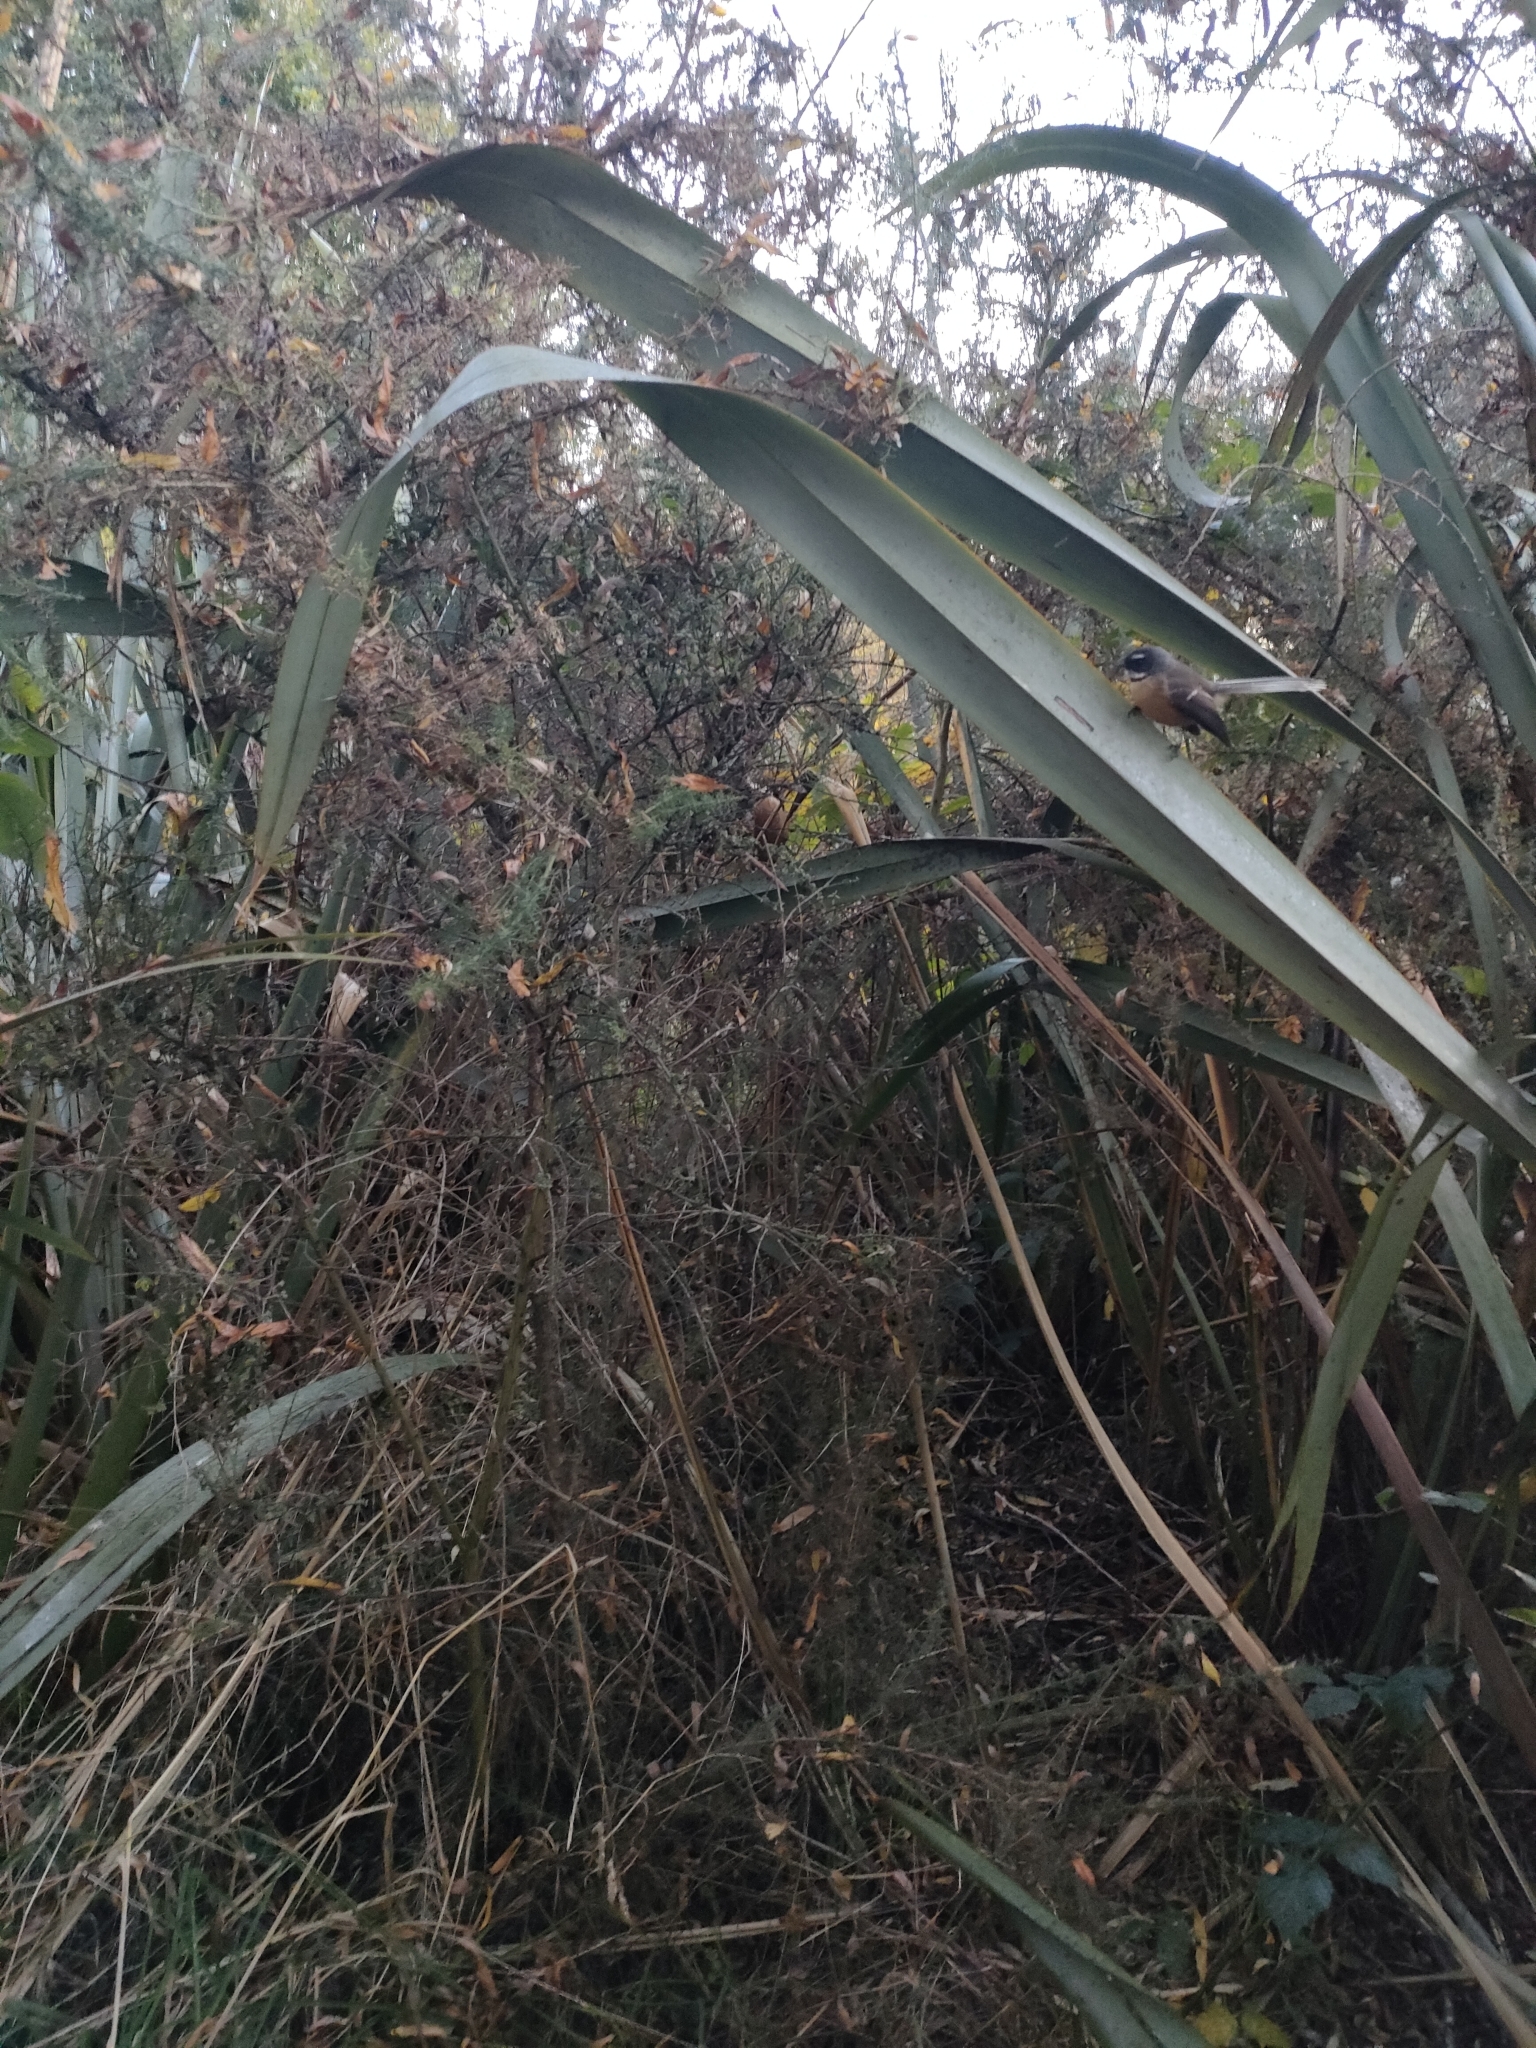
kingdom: Animalia
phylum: Chordata
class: Aves
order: Passeriformes
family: Rhipiduridae
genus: Rhipidura
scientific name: Rhipidura fuliginosa
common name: New zealand fantail
